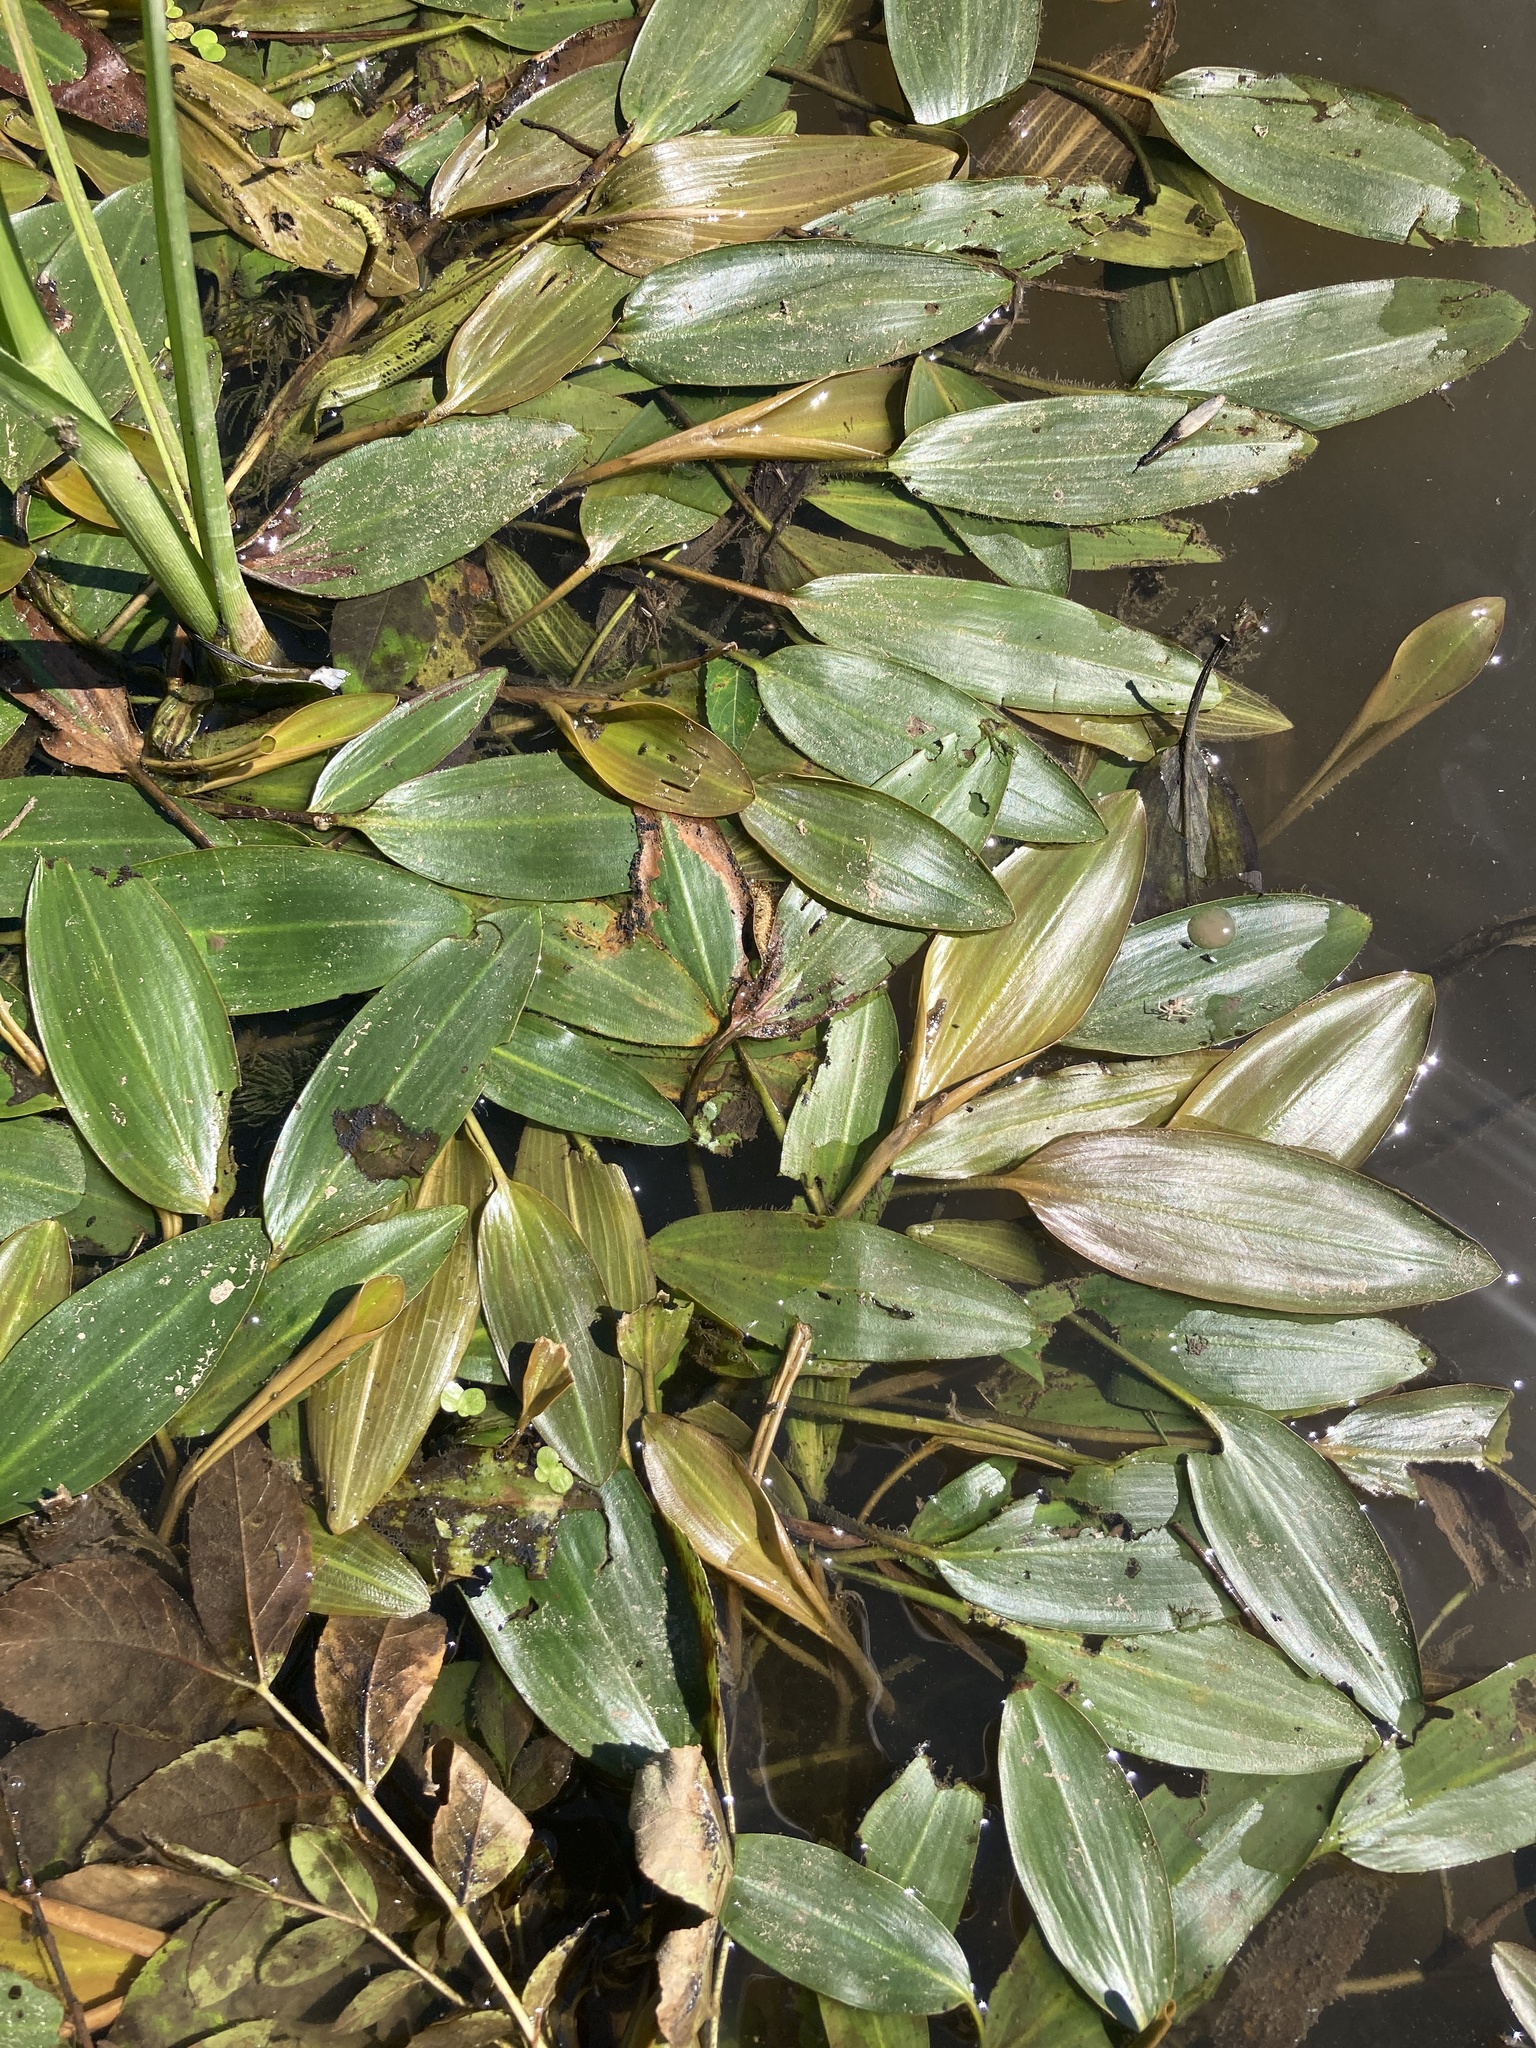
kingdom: Plantae
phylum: Tracheophyta
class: Liliopsida
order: Alismatales
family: Potamogetonaceae
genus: Potamogeton
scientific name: Potamogeton nodosus
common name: Loddon pondweed
